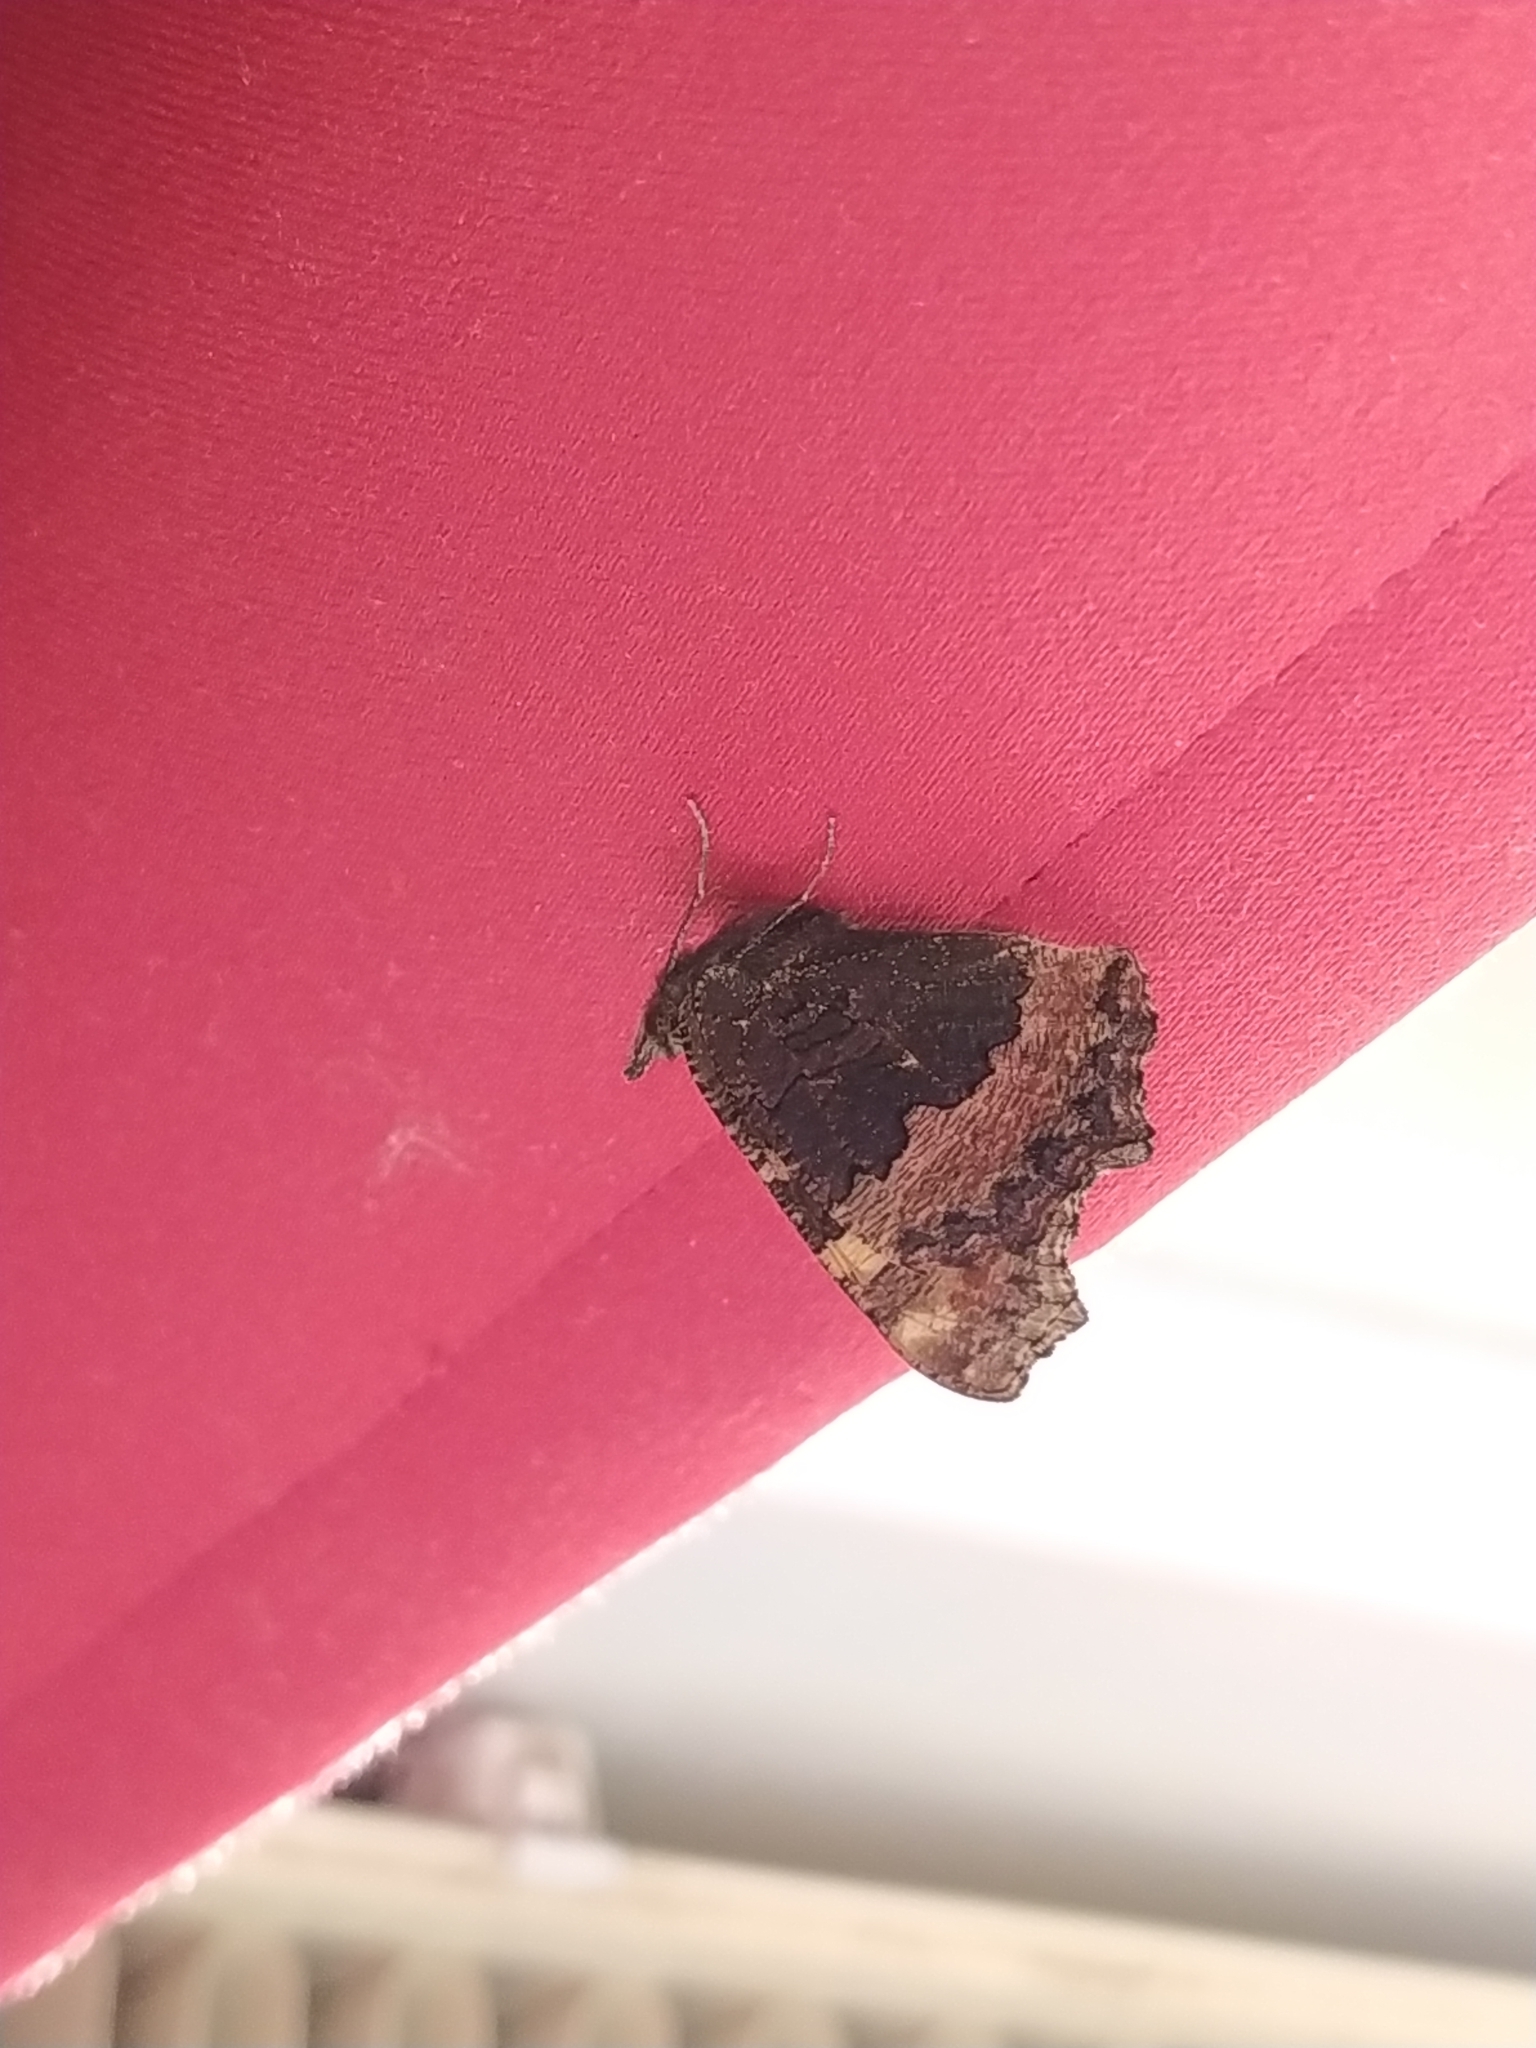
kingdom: Animalia
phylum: Arthropoda
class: Insecta
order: Lepidoptera
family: Nymphalidae
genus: Aglais
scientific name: Aglais urticae
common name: Small tortoiseshell
